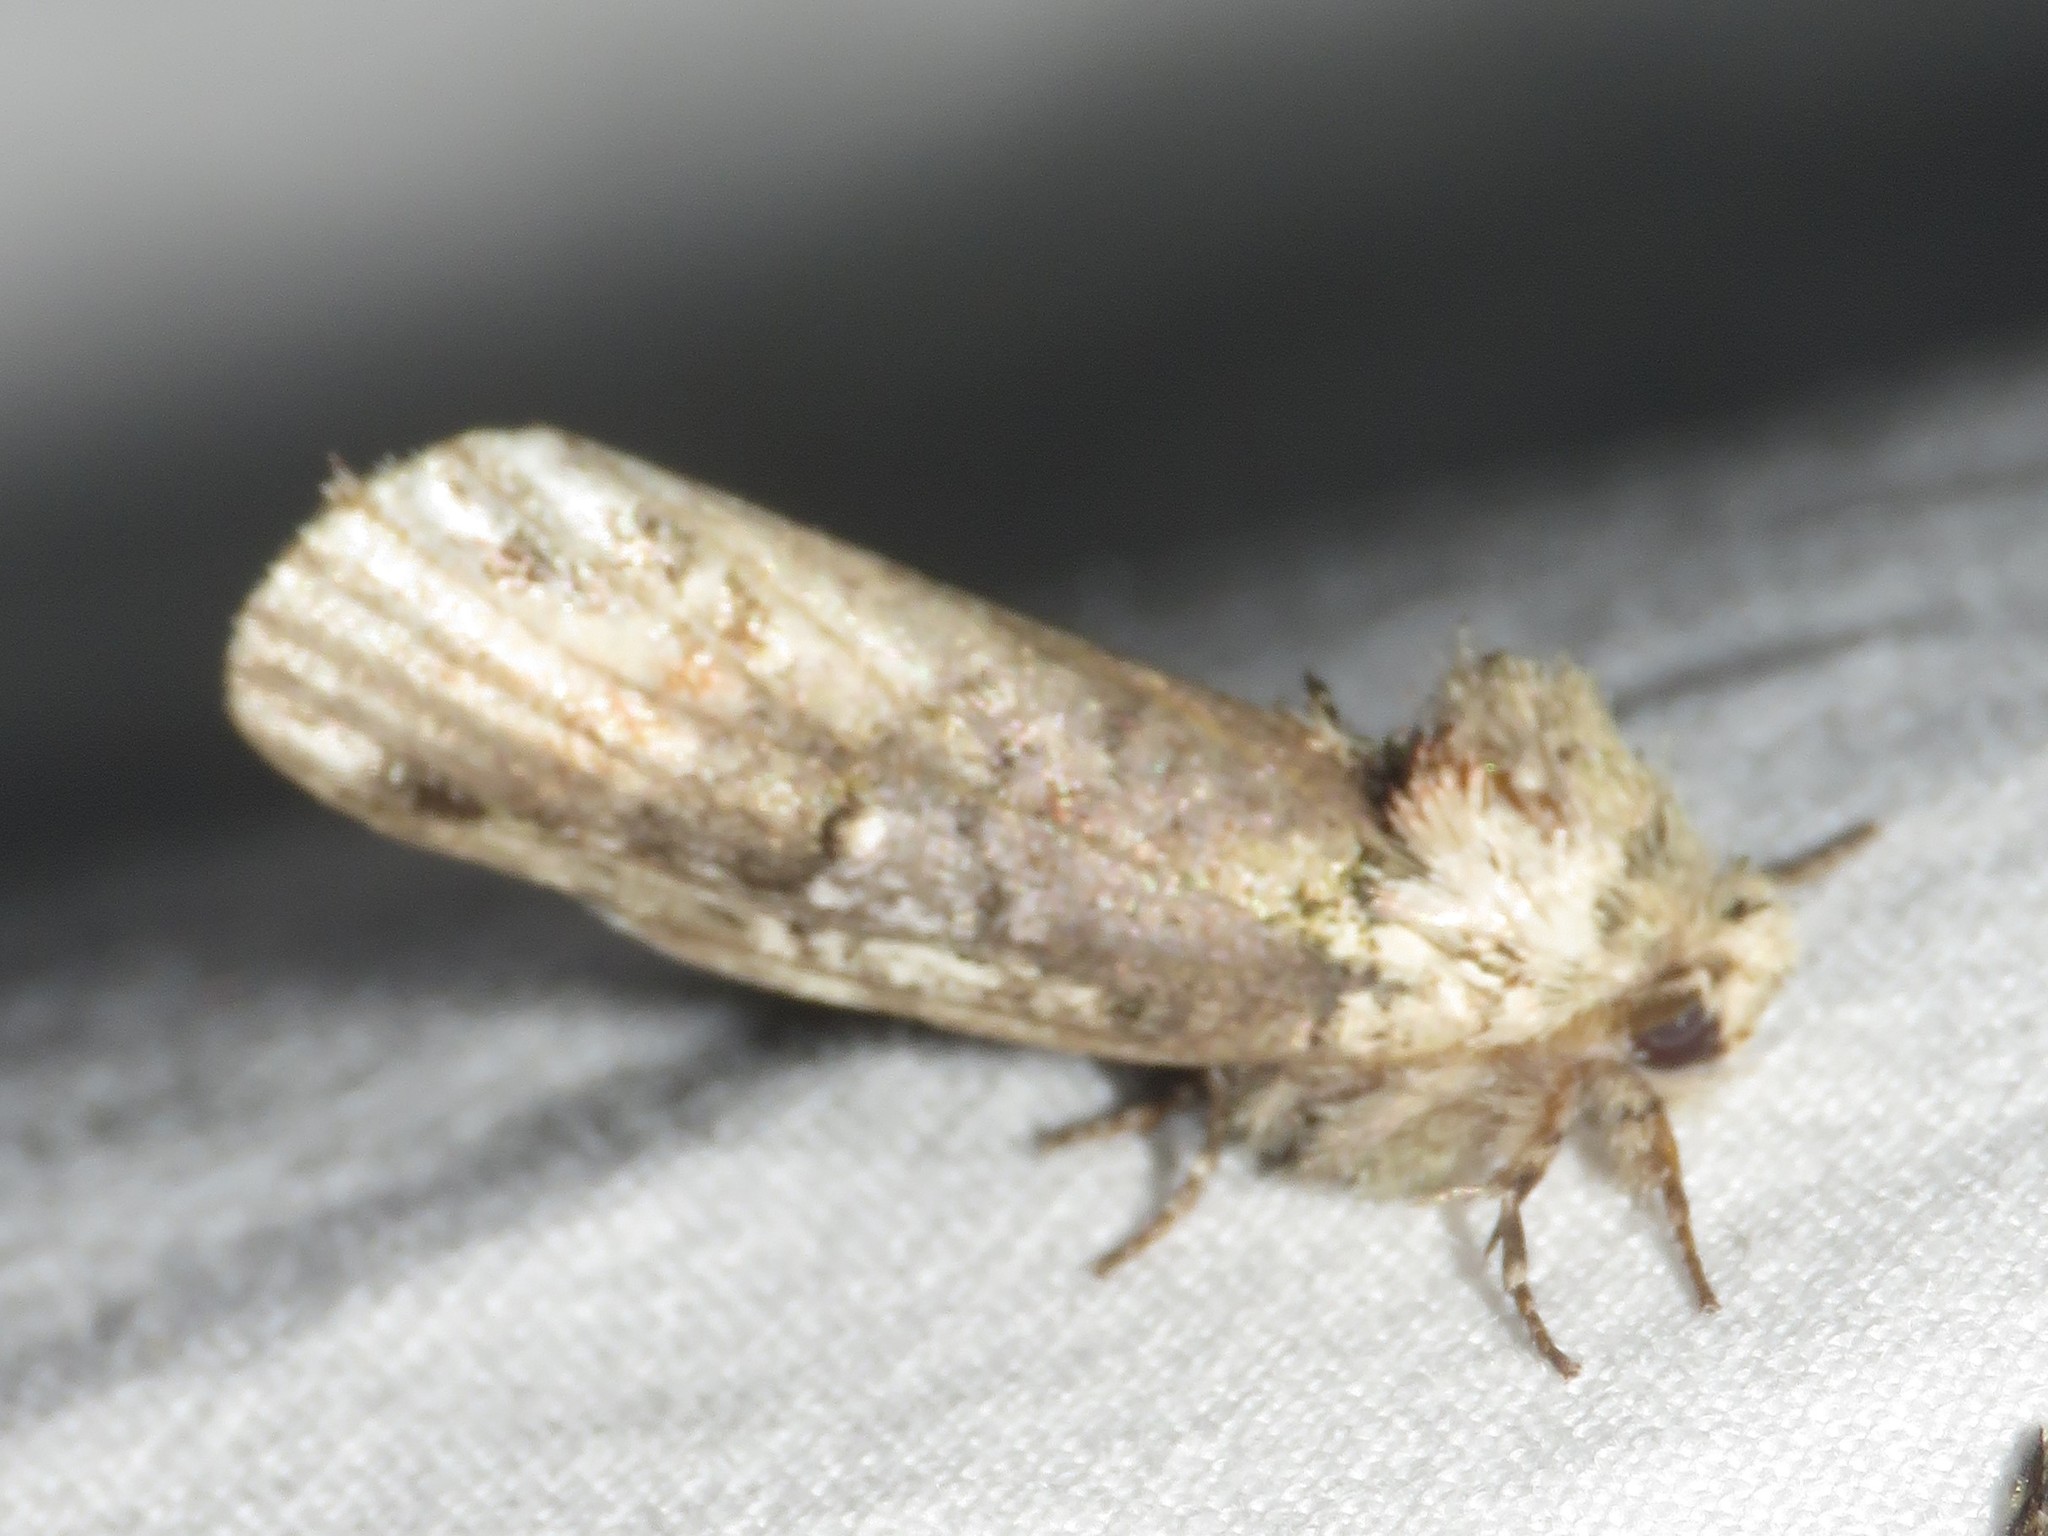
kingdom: Animalia
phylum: Arthropoda
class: Insecta
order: Lepidoptera
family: Notodontidae
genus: Schizura
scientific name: Schizura
